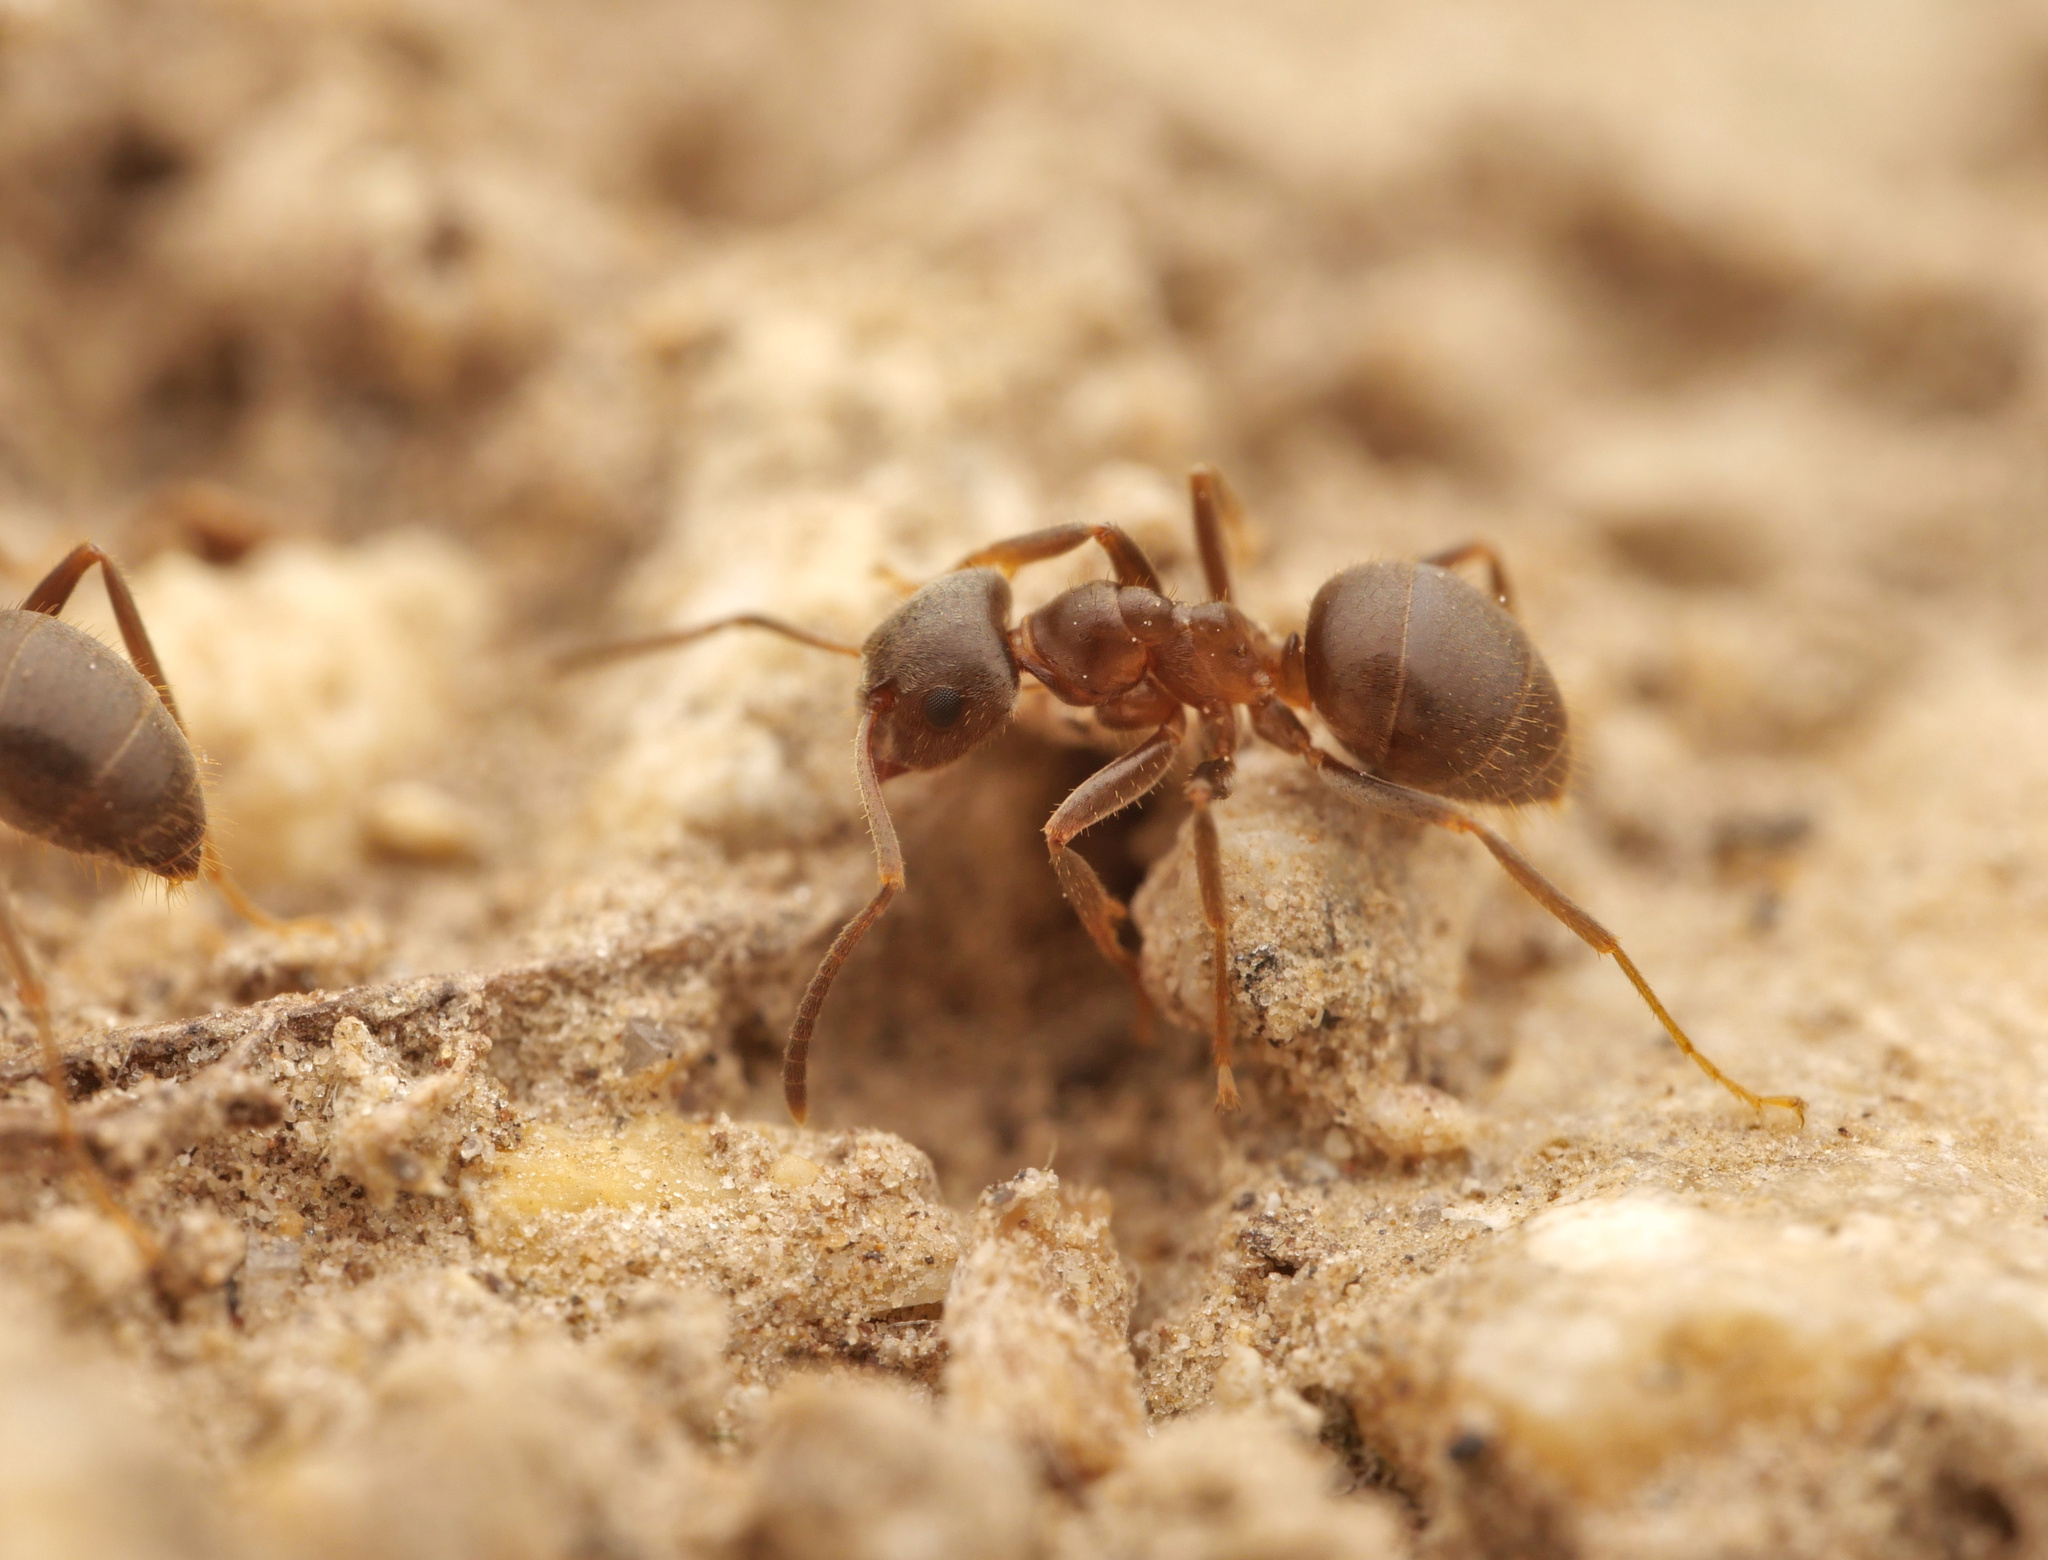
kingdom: Animalia
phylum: Arthropoda
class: Insecta
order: Hymenoptera
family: Formicidae
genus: Lasius
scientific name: Lasius niger
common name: Small black ant
